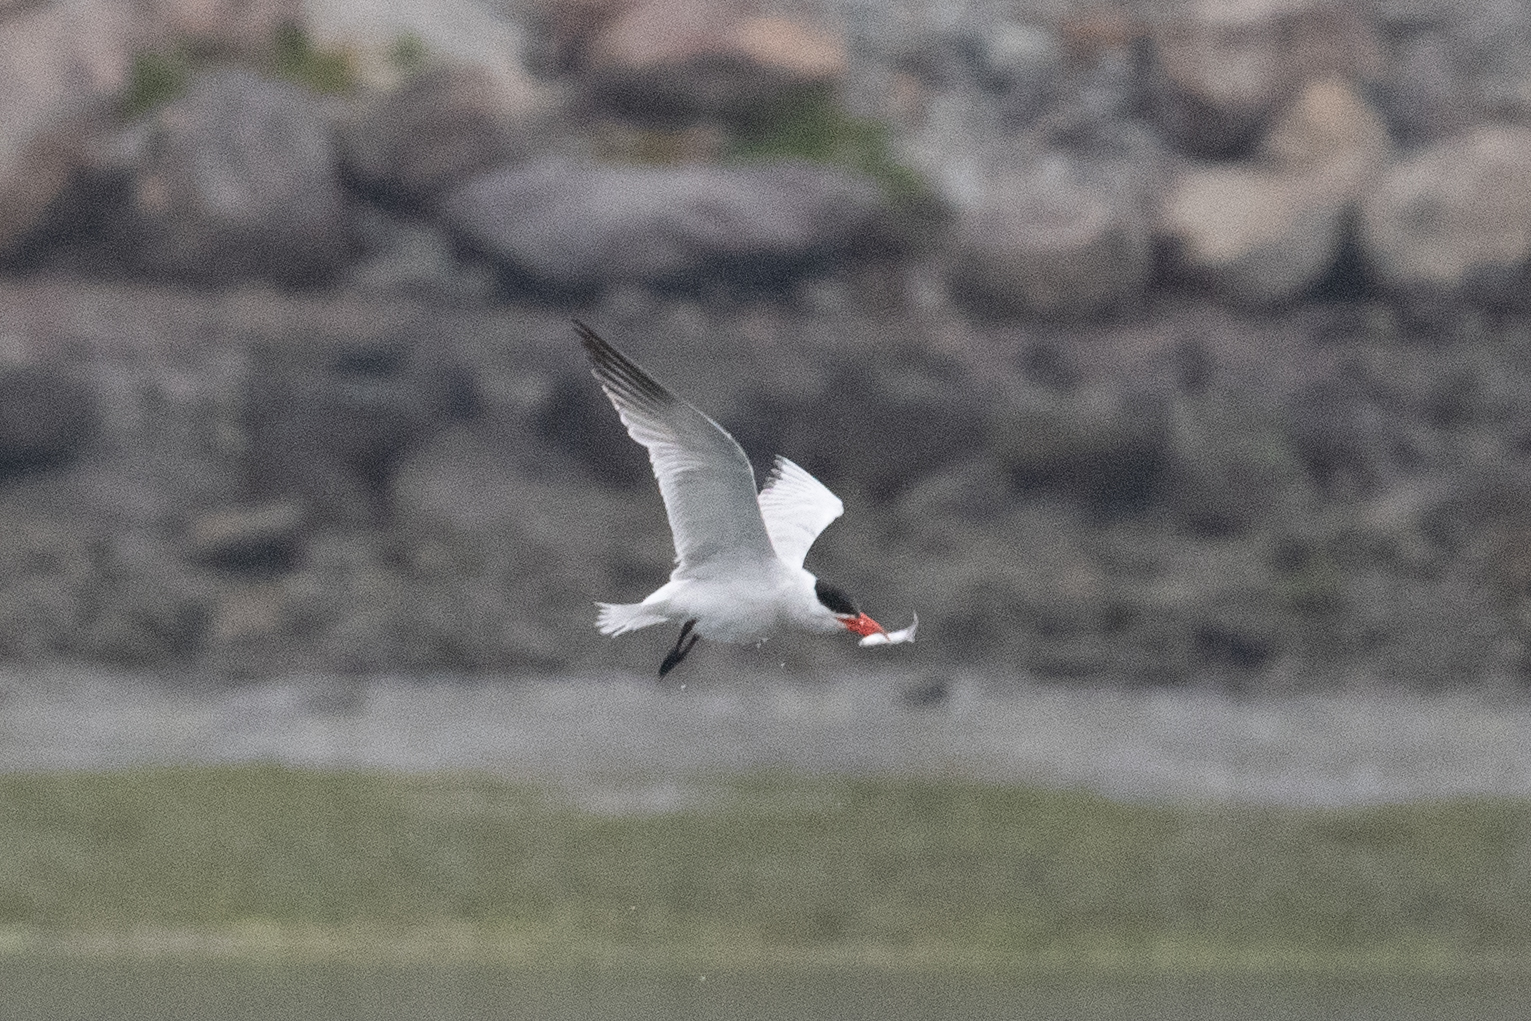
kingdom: Animalia
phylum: Chordata
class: Aves
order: Charadriiformes
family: Laridae
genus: Hydroprogne
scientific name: Hydroprogne caspia
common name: Caspian tern
